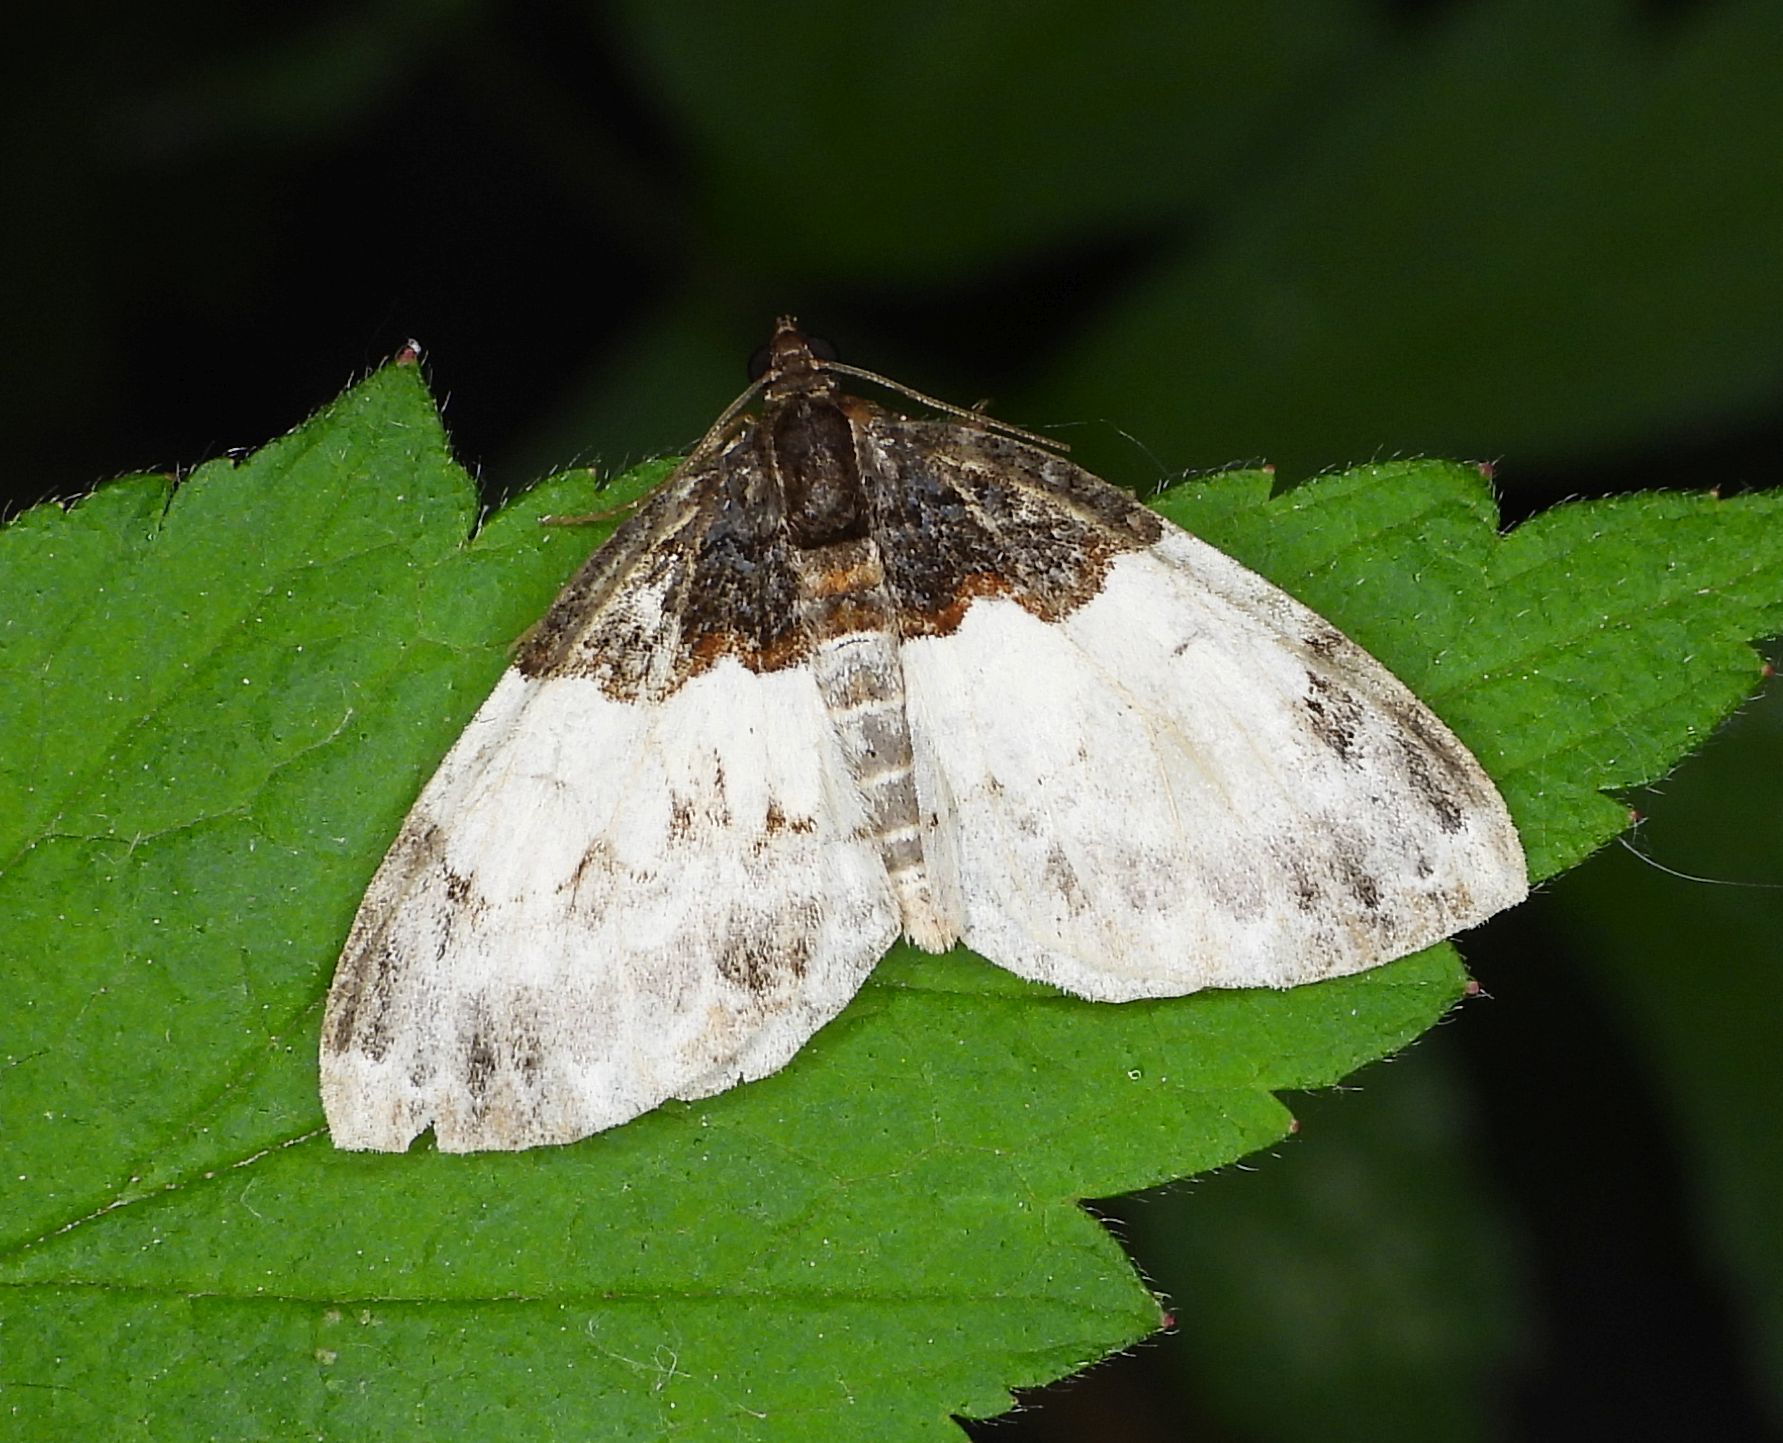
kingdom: Animalia
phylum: Arthropoda
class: Insecta
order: Lepidoptera
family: Geometridae
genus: Mesoleuca
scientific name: Mesoleuca ruficillata
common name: White-ribboned carpet moth
